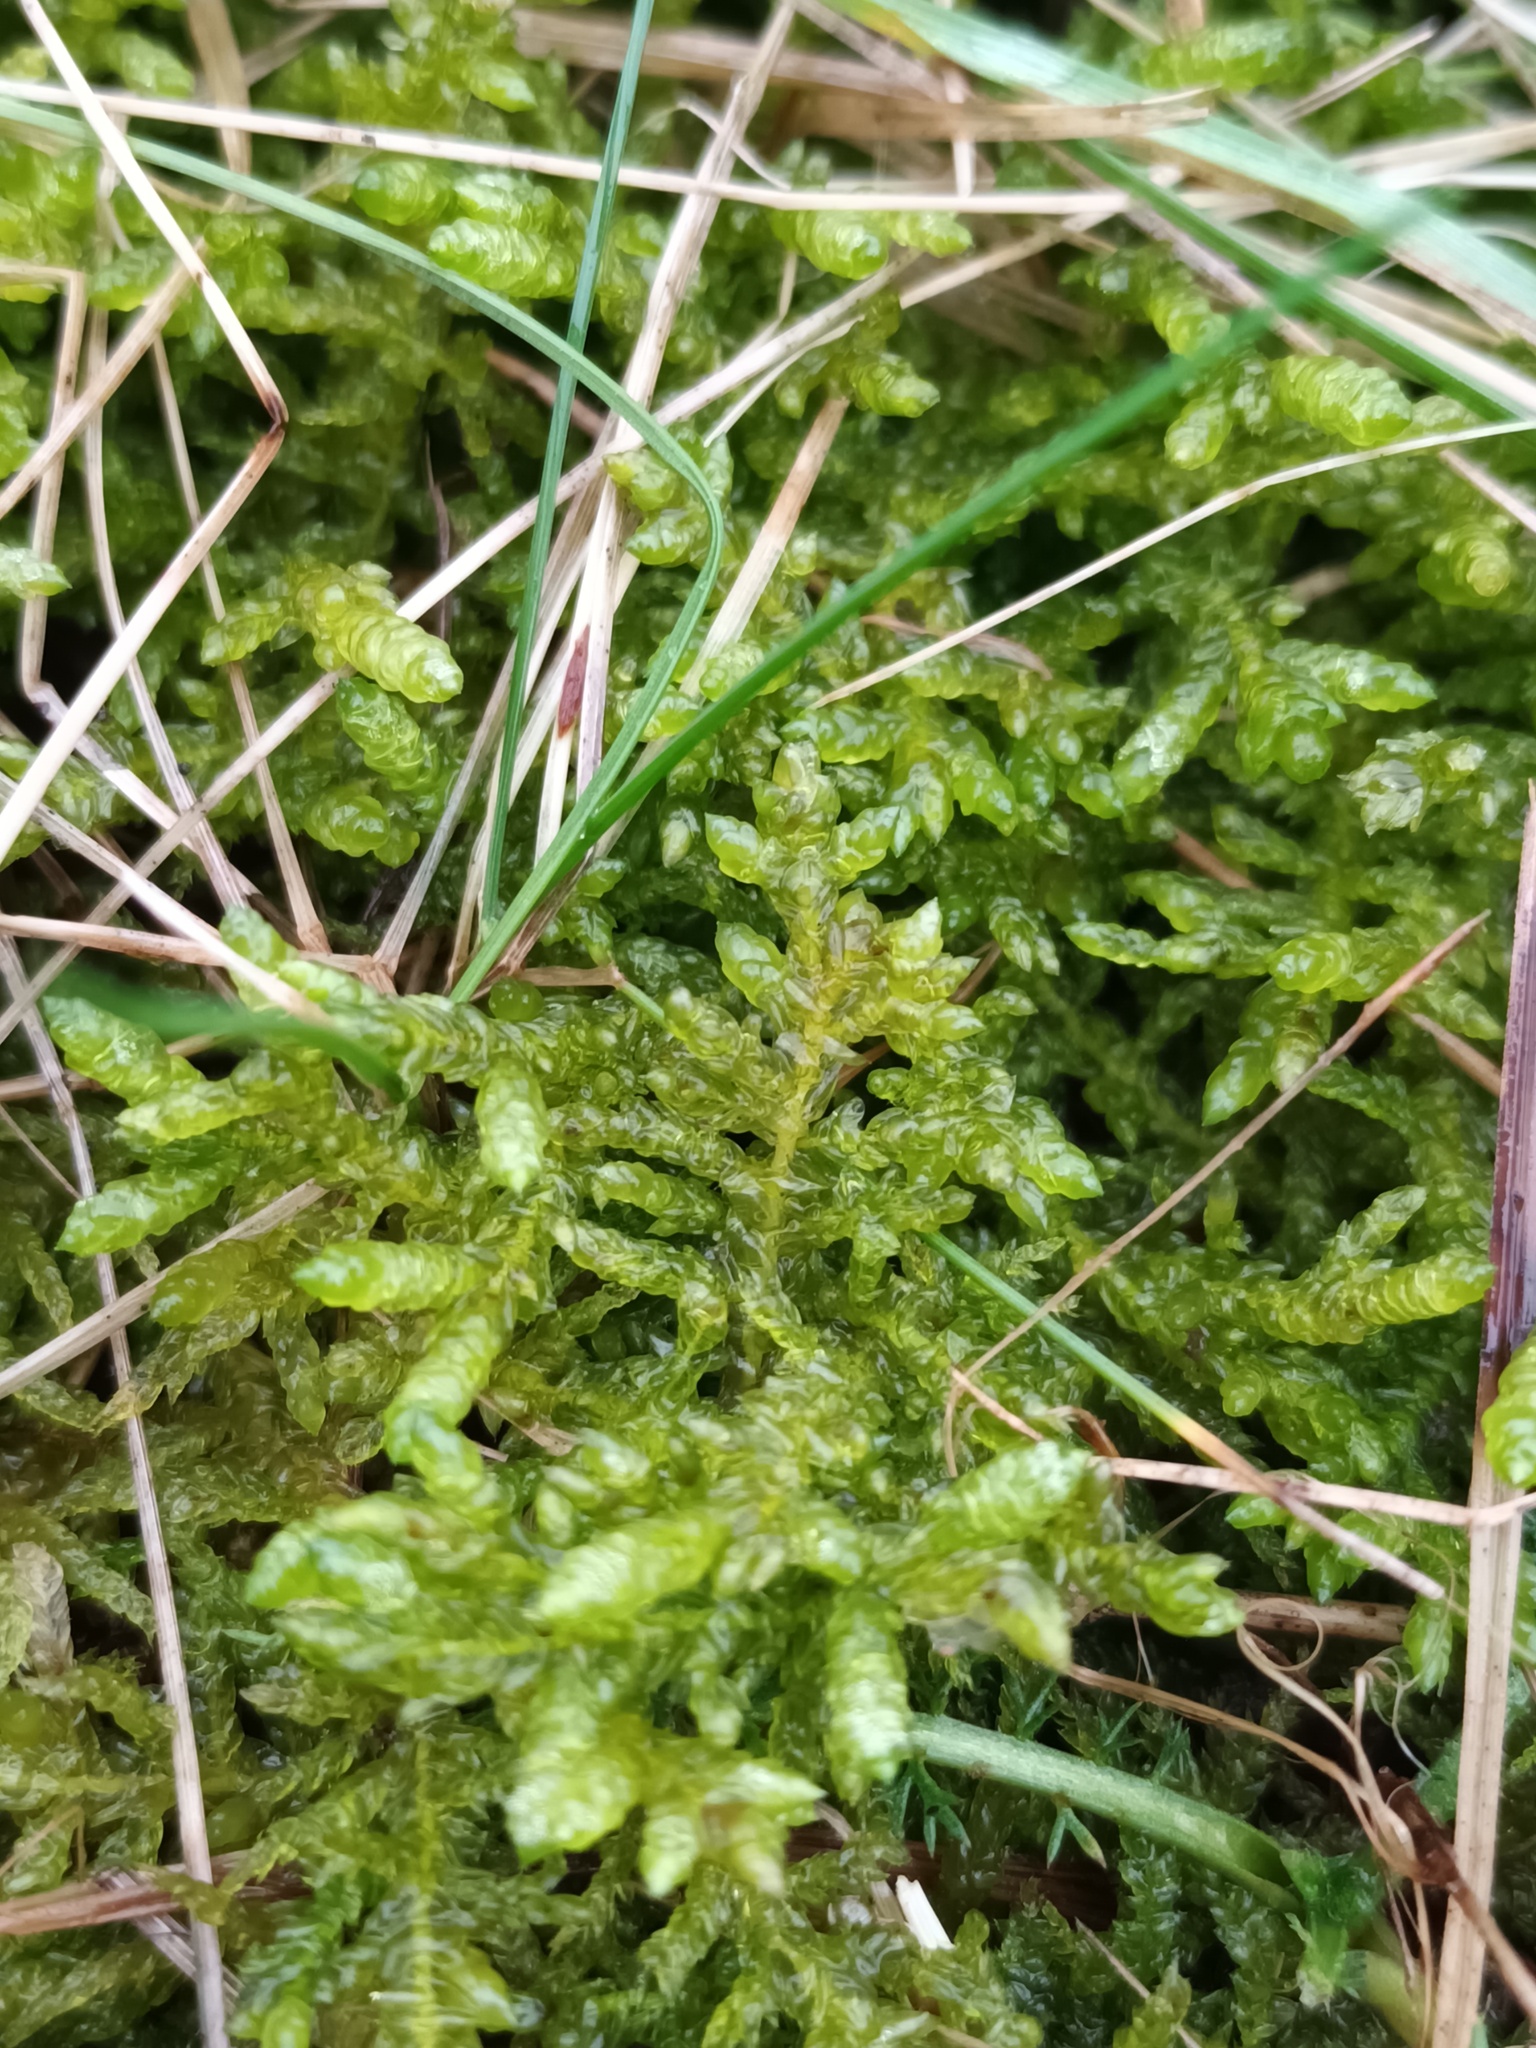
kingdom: Plantae
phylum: Bryophyta
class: Bryopsida
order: Hypnales
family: Brachytheciaceae
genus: Pseudoscleropodium
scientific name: Pseudoscleropodium purum
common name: Neat feather-moss
